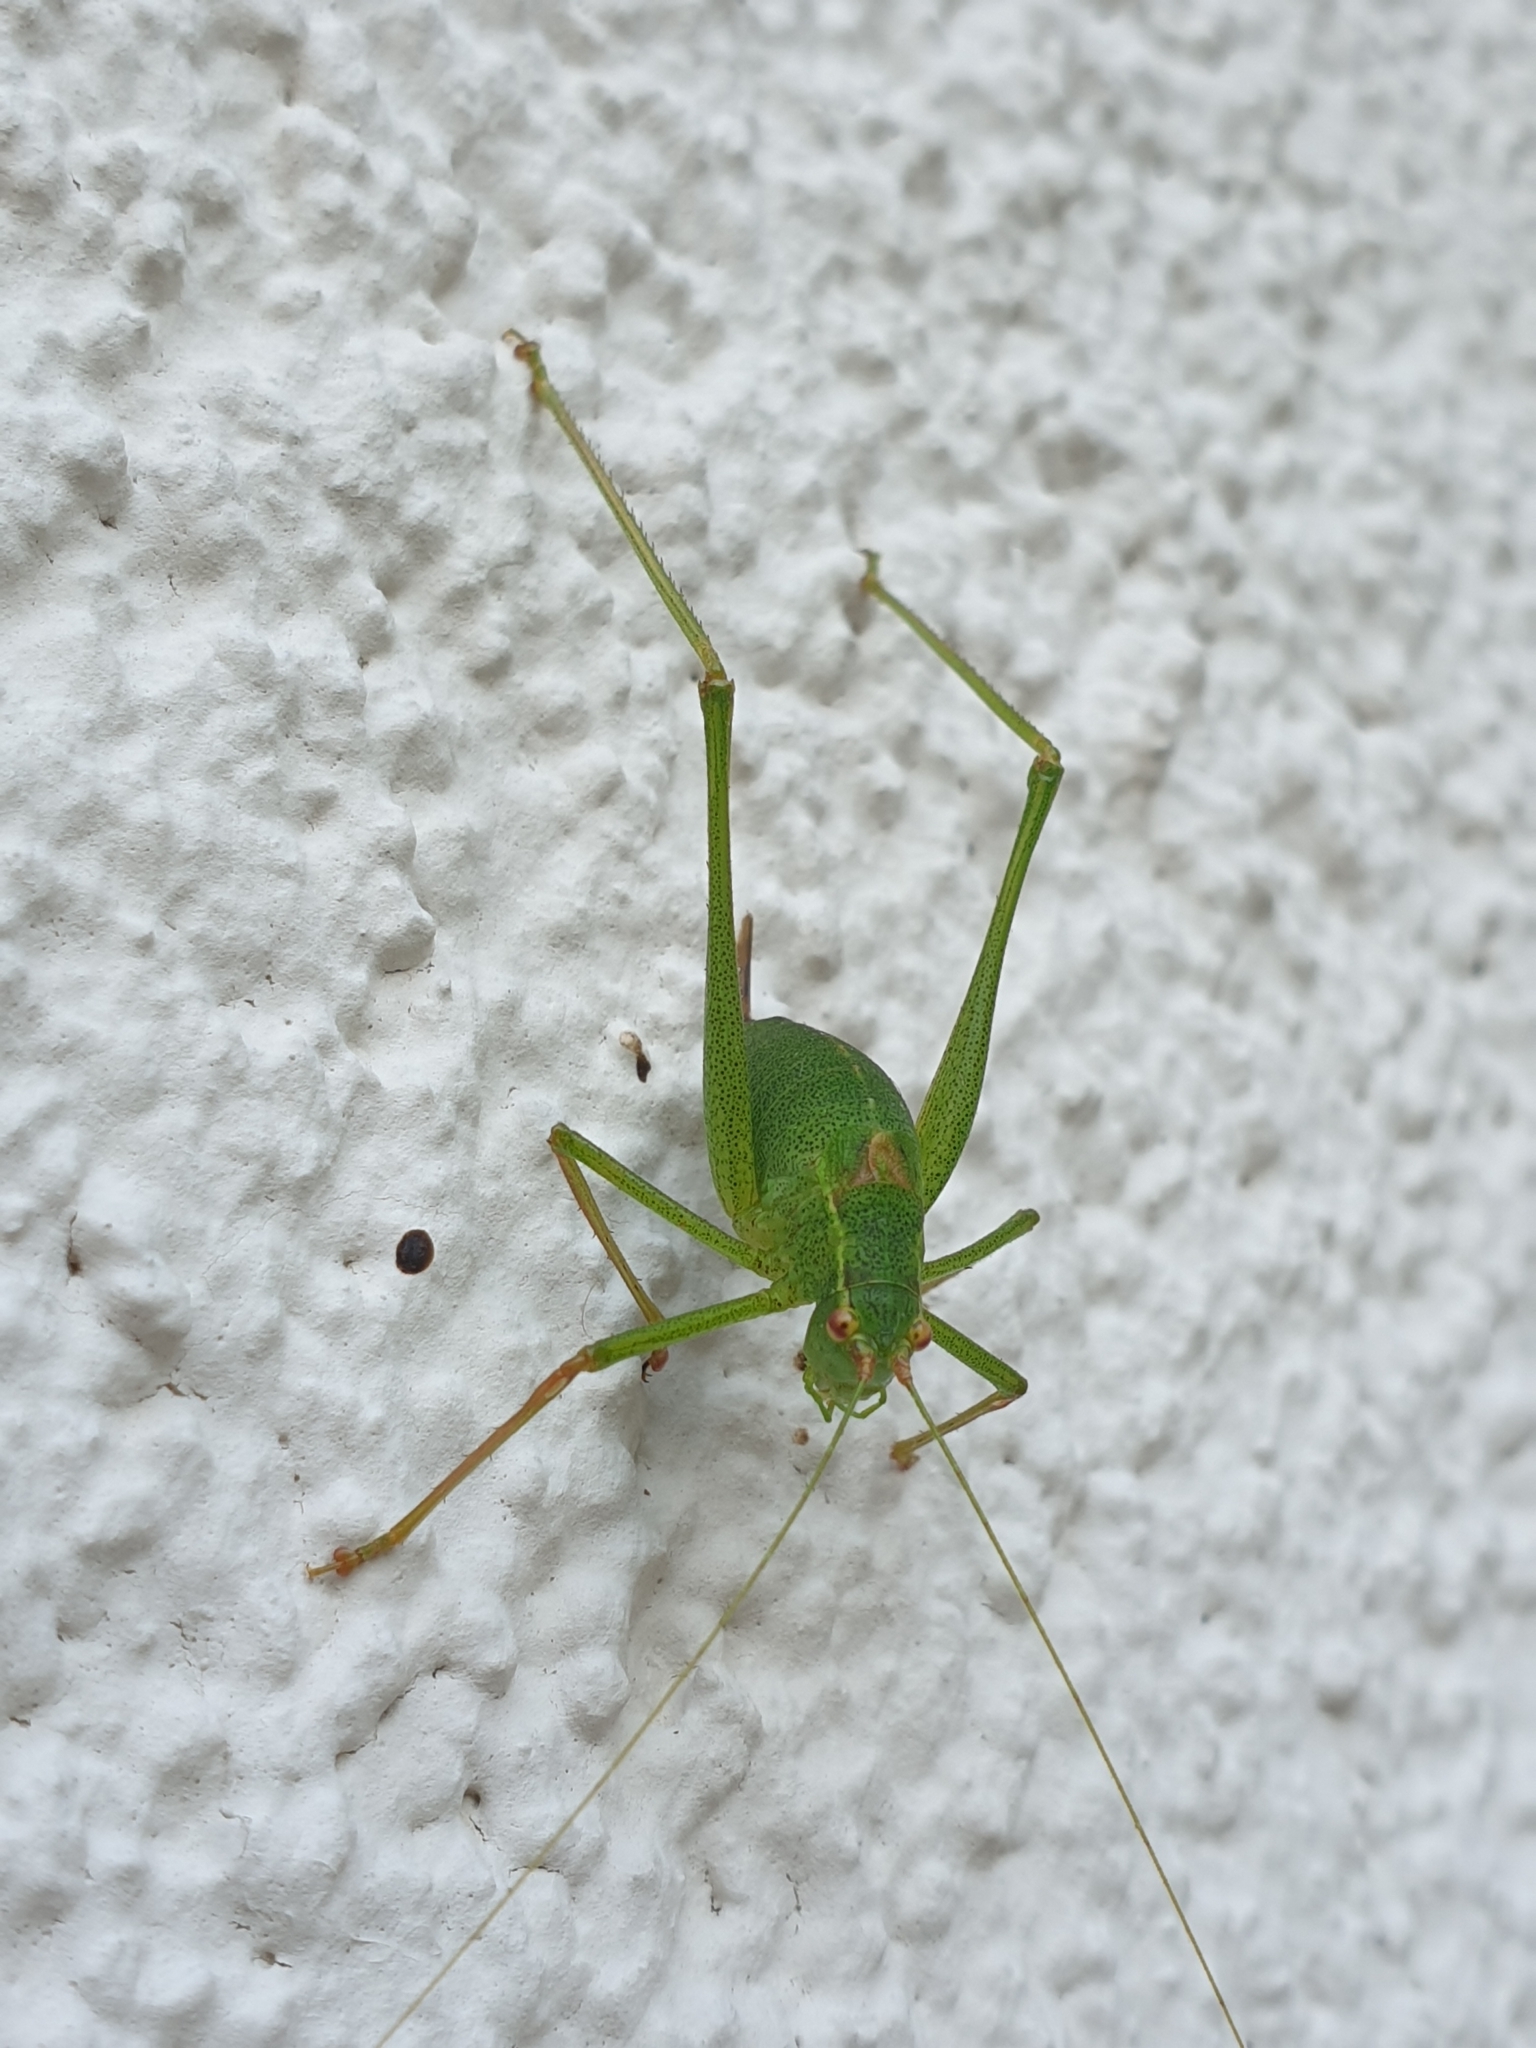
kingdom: Animalia
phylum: Arthropoda
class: Insecta
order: Orthoptera
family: Tettigoniidae
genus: Leptophyes
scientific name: Leptophyes punctatissima
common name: Speckled bush-cricket
